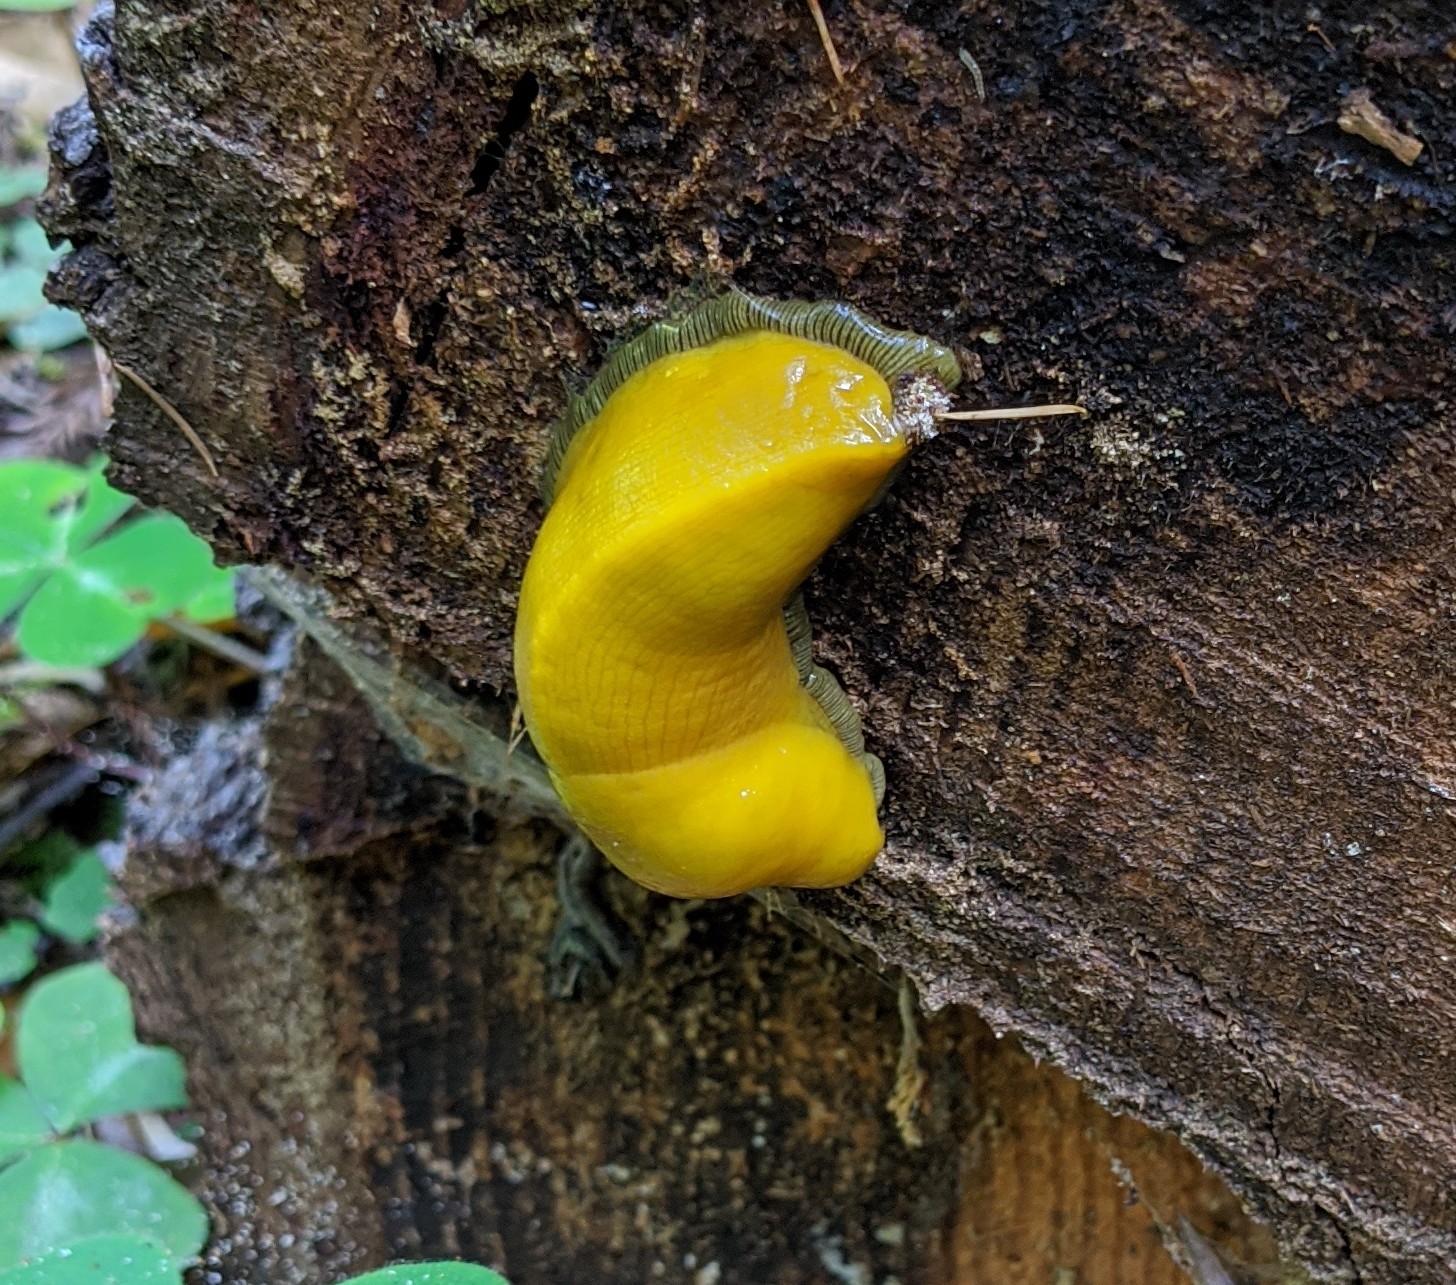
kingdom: Animalia
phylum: Mollusca
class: Gastropoda
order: Stylommatophora
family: Ariolimacidae
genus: Ariolimax
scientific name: Ariolimax californicus
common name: California banana slug
